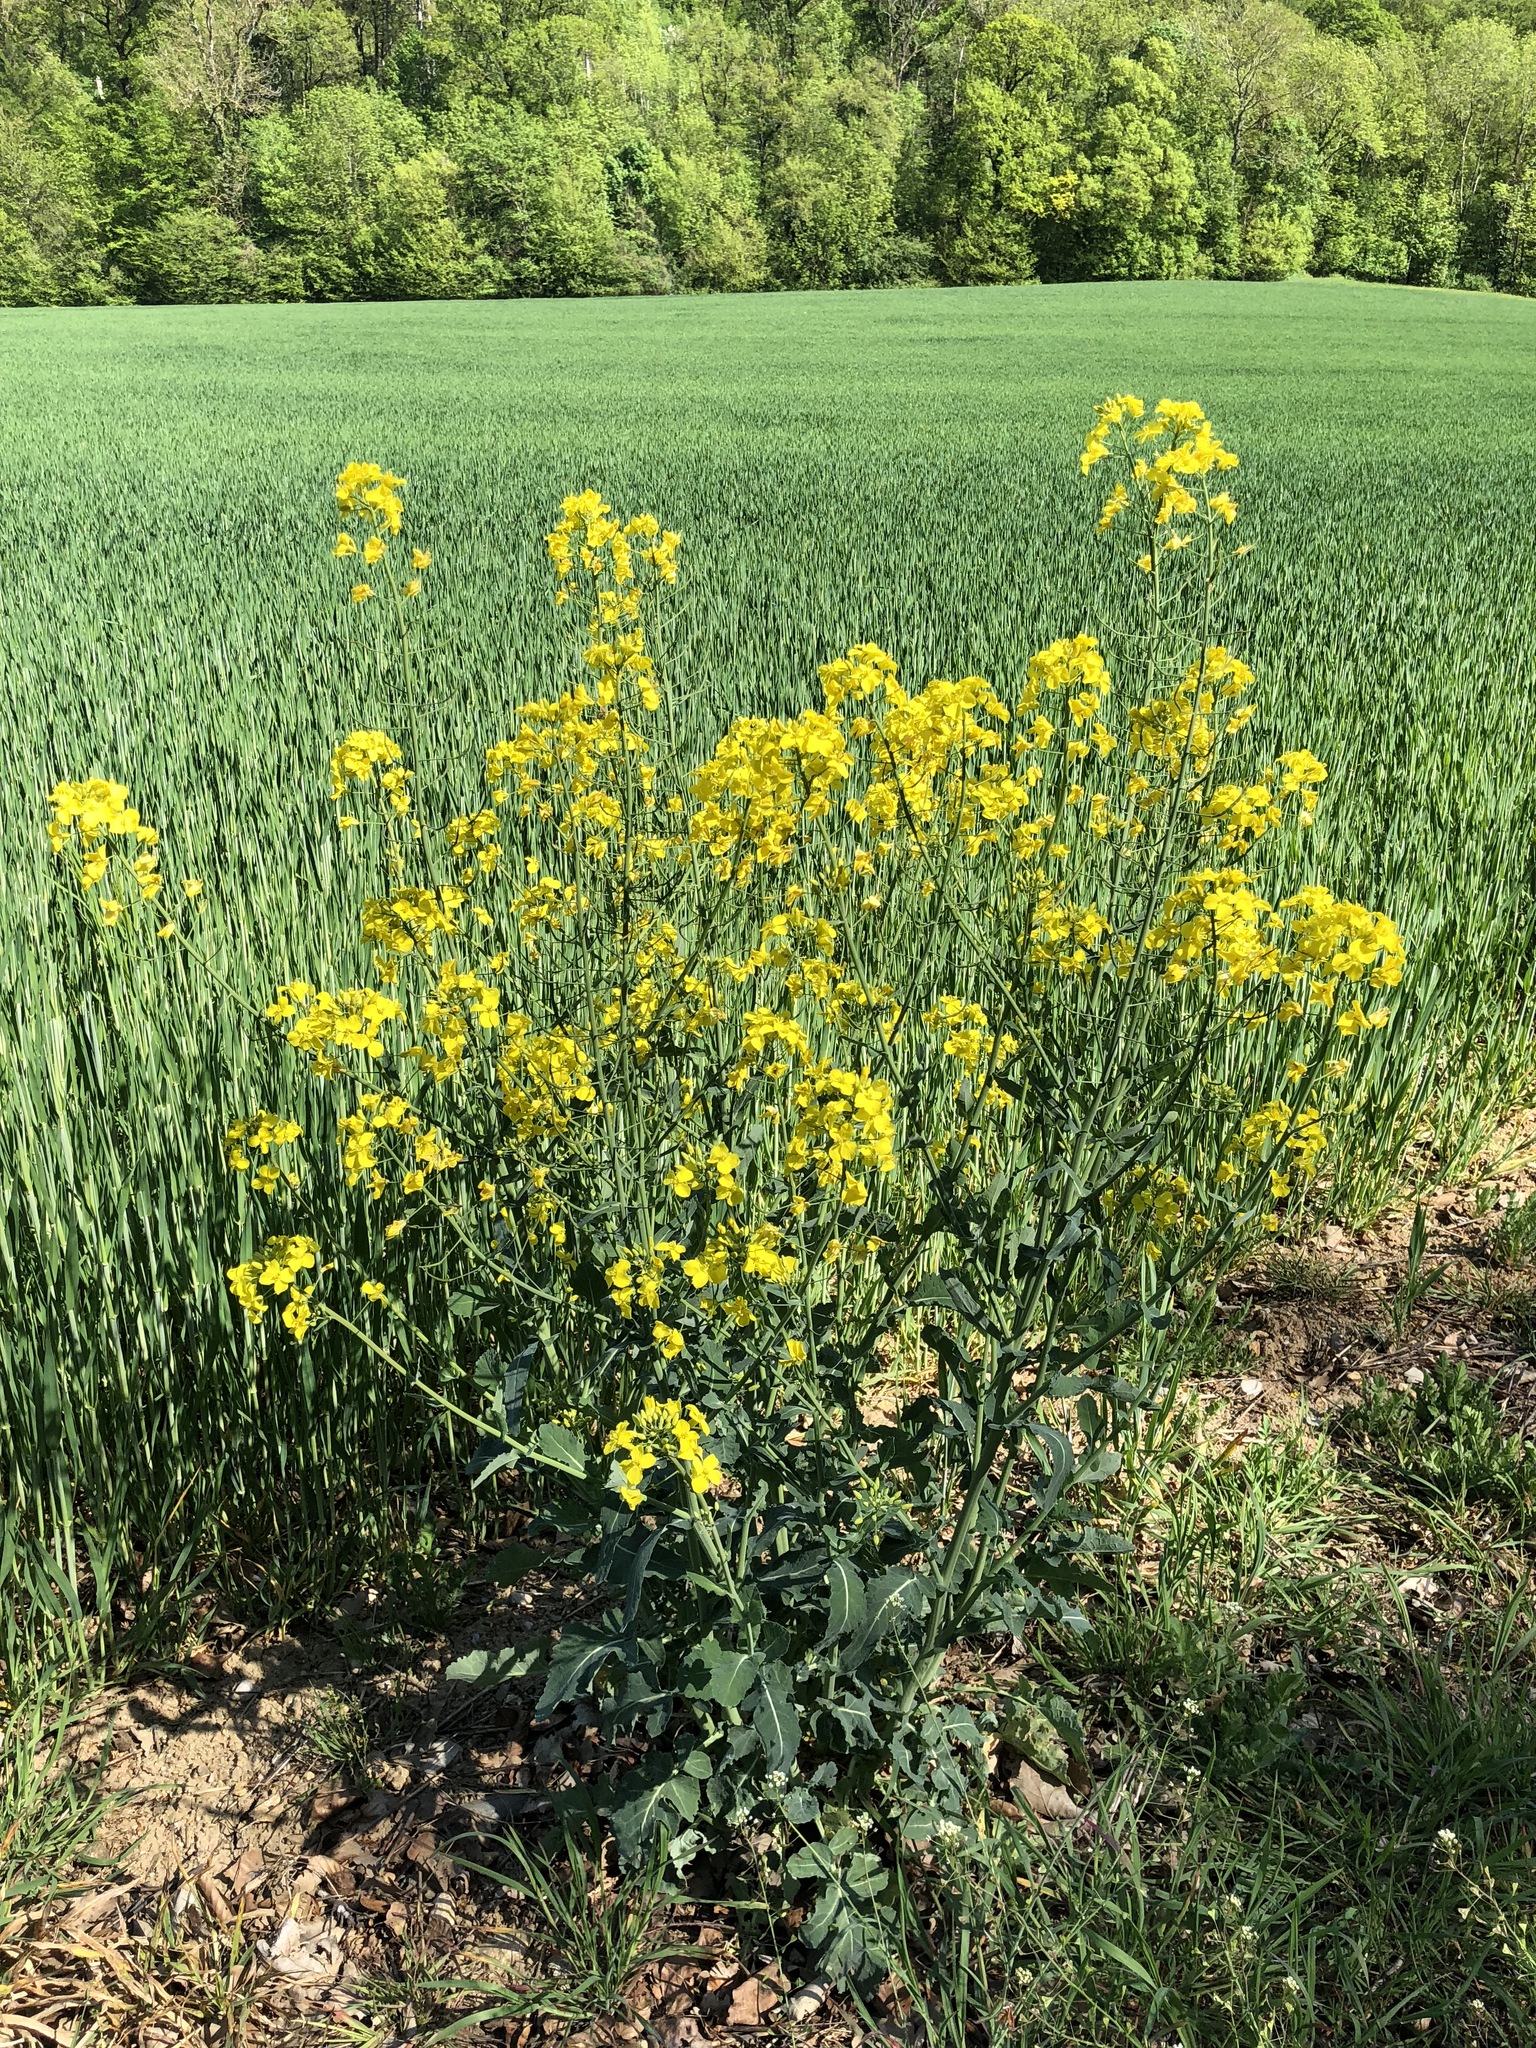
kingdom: Plantae
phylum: Tracheophyta
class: Magnoliopsida
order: Brassicales
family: Brassicaceae
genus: Brassica
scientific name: Brassica napus
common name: Rape
